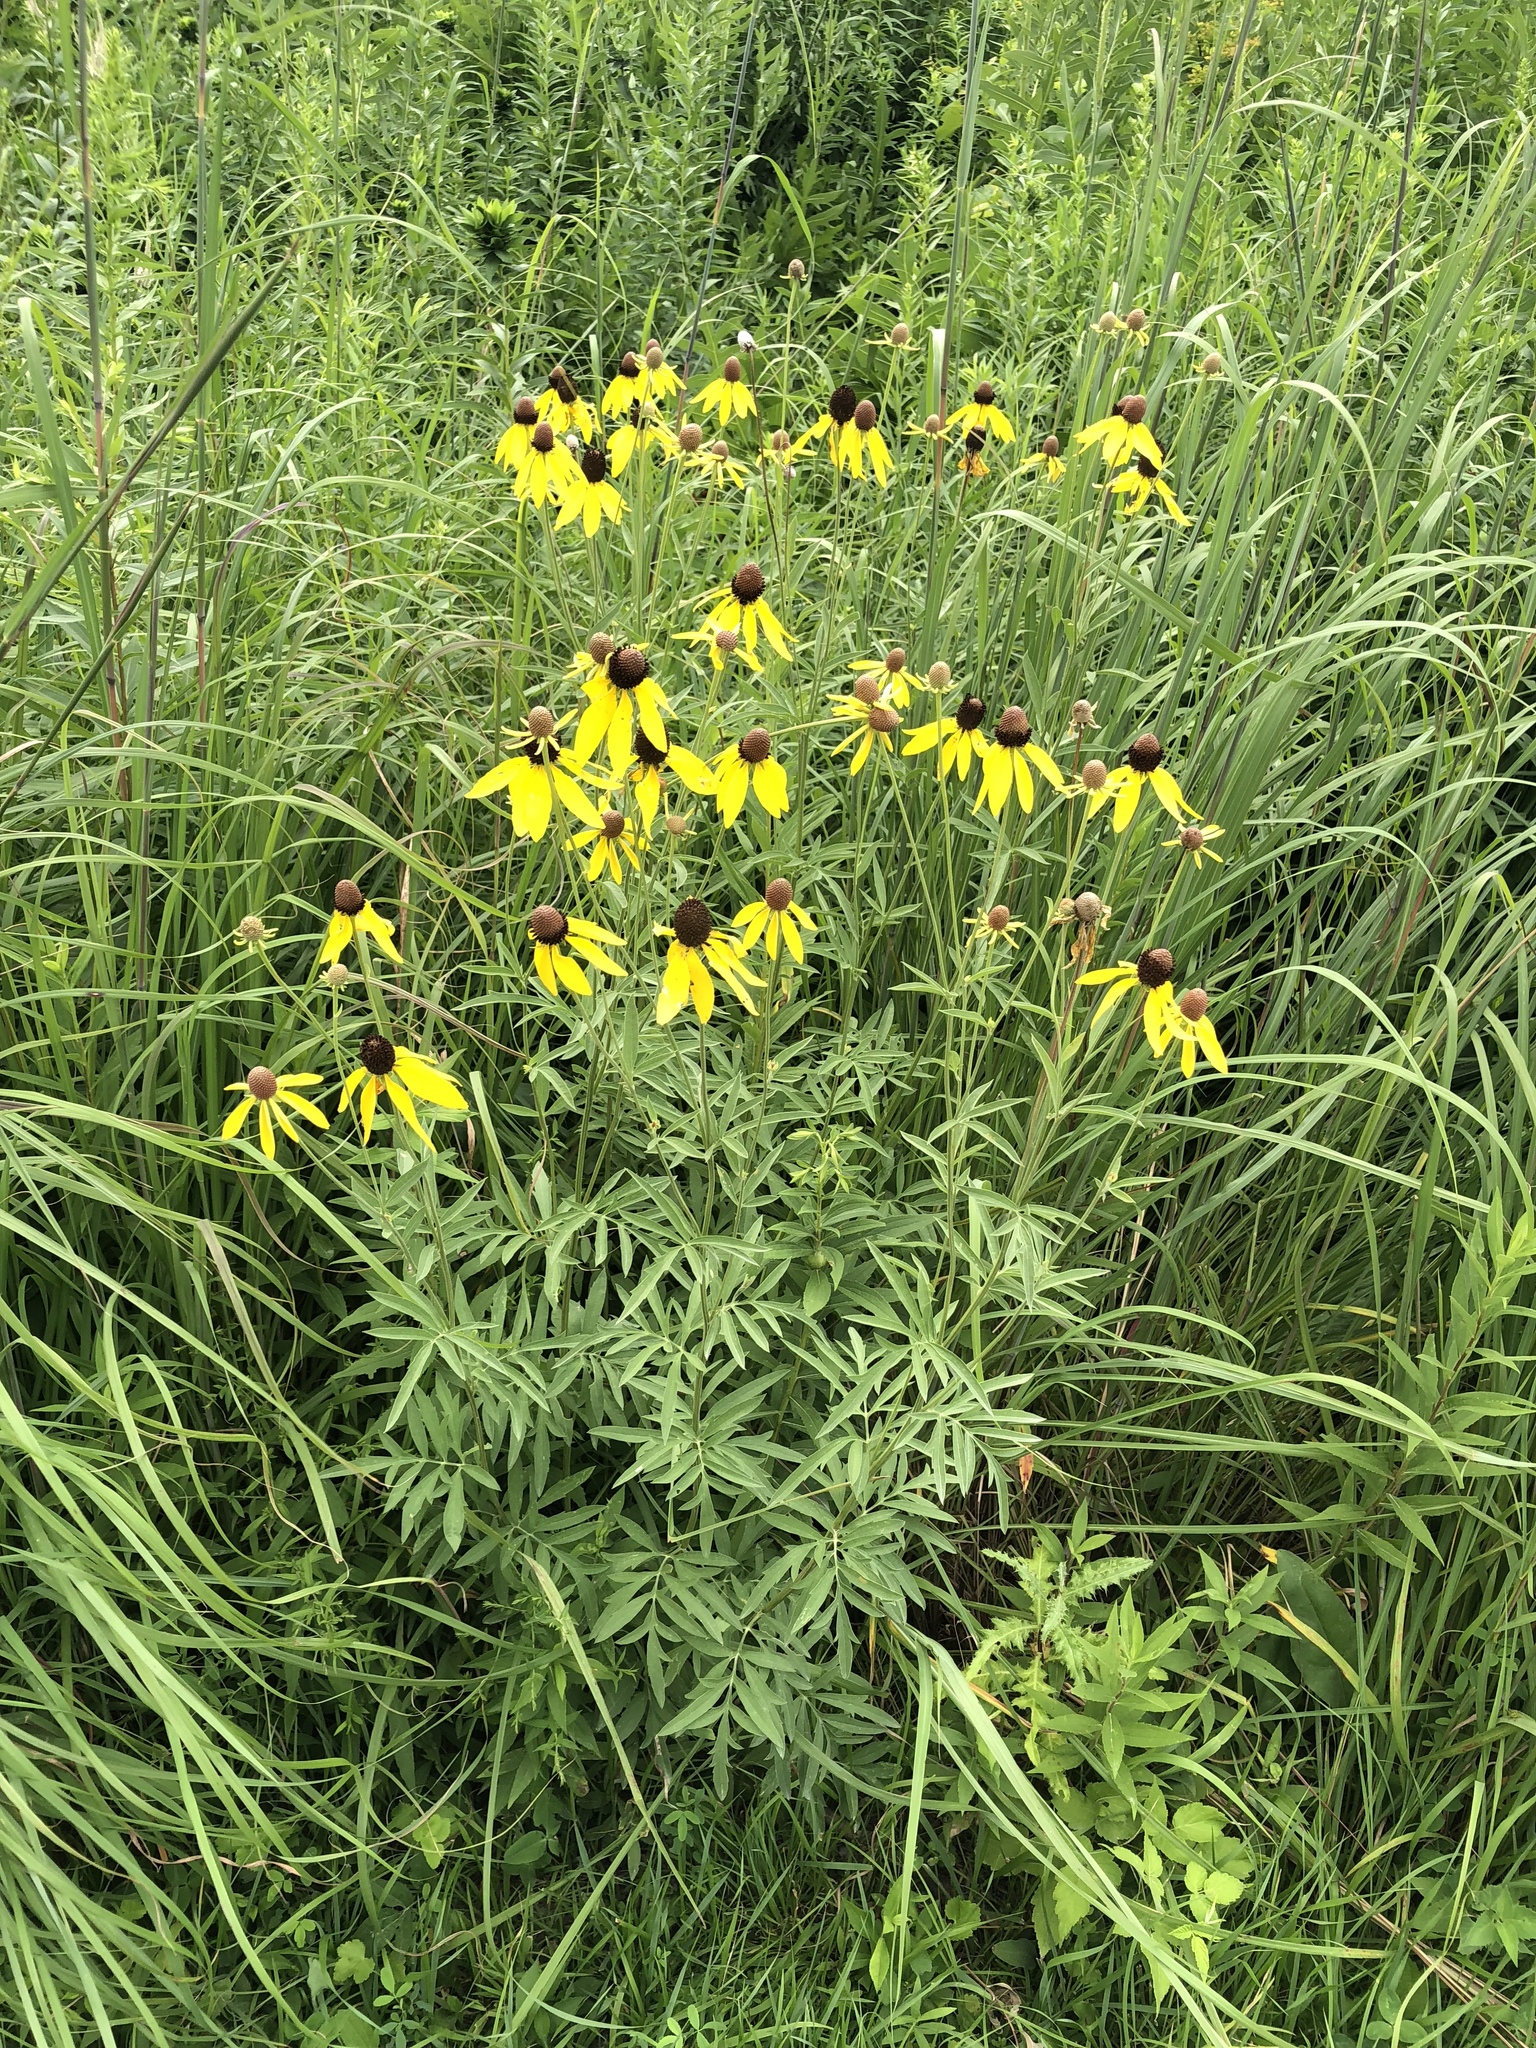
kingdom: Plantae
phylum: Tracheophyta
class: Magnoliopsida
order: Asterales
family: Asteraceae
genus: Ratibida
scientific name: Ratibida pinnata
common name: Drooping prairie-coneflower
